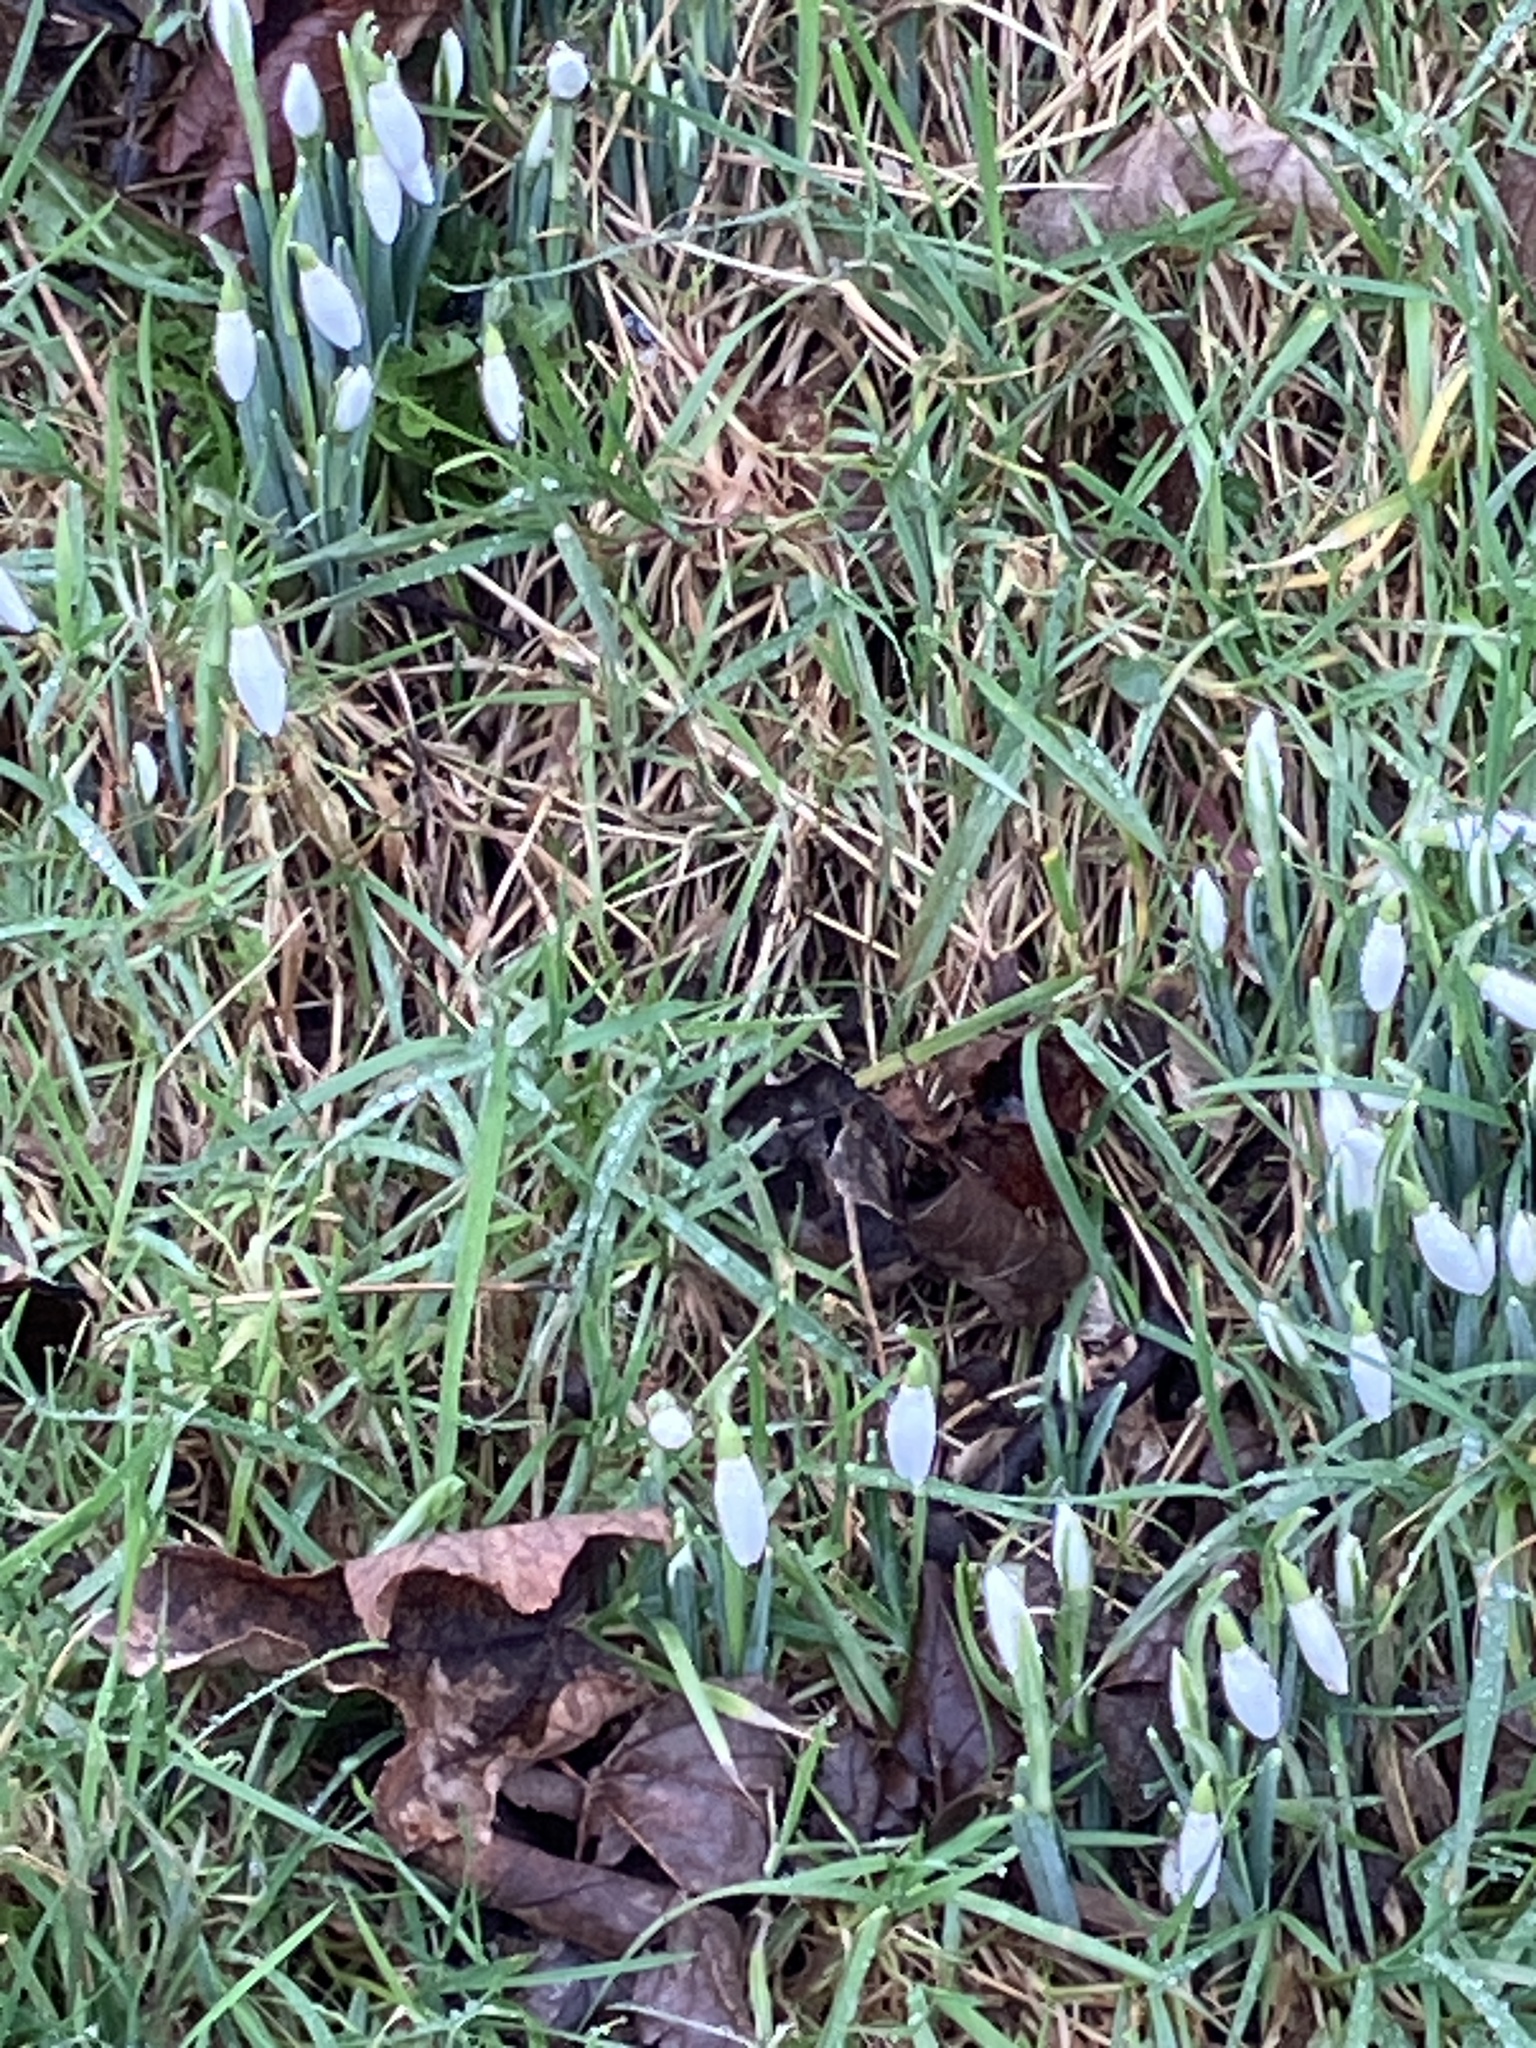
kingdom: Plantae
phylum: Tracheophyta
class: Liliopsida
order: Asparagales
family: Amaryllidaceae
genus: Galanthus
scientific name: Galanthus nivalis
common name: Snowdrop
